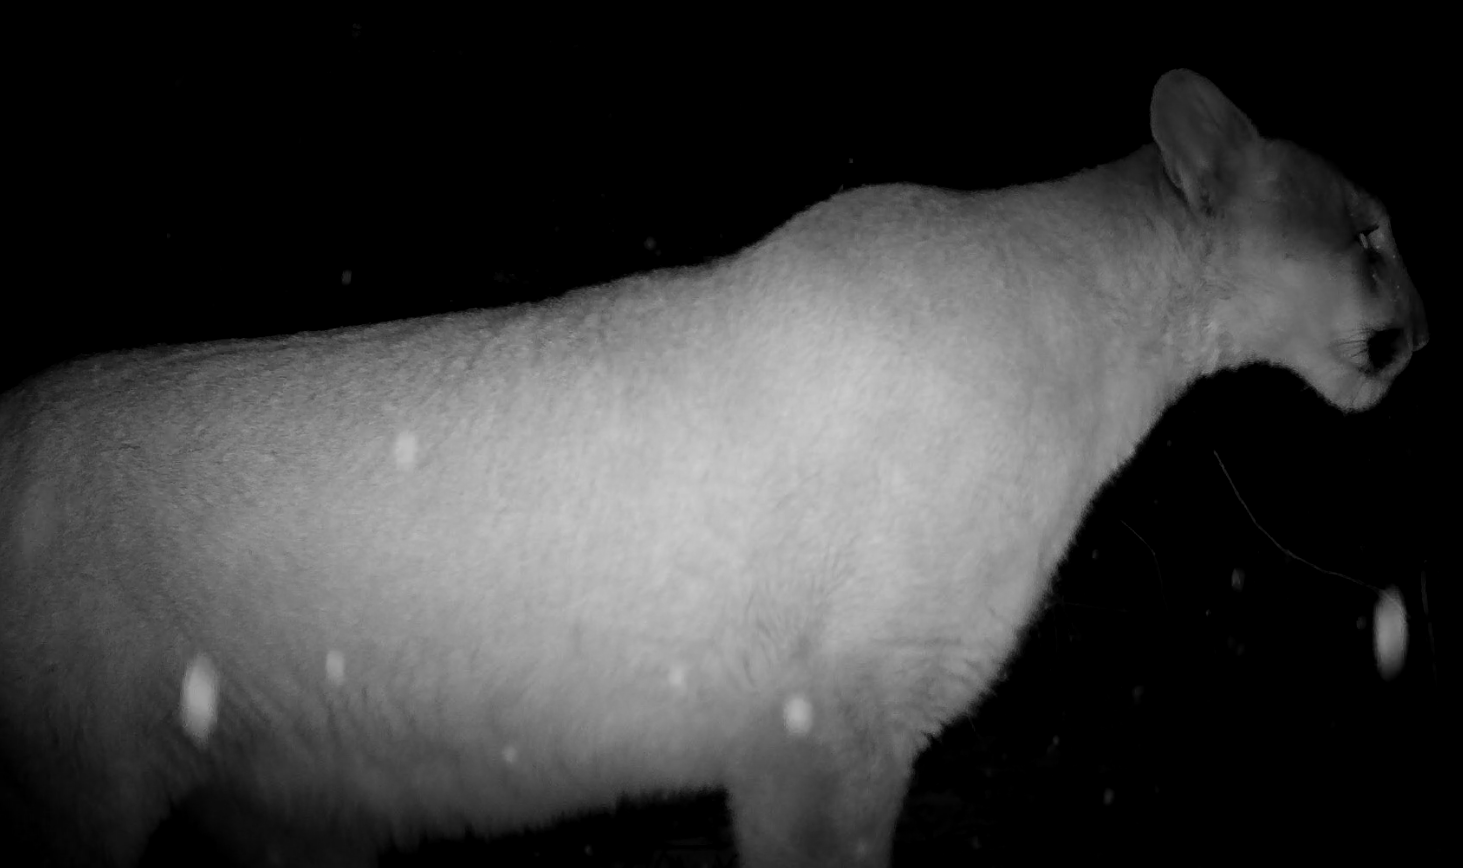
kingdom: Animalia
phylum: Chordata
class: Mammalia
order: Carnivora
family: Felidae
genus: Puma
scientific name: Puma concolor
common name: Puma
